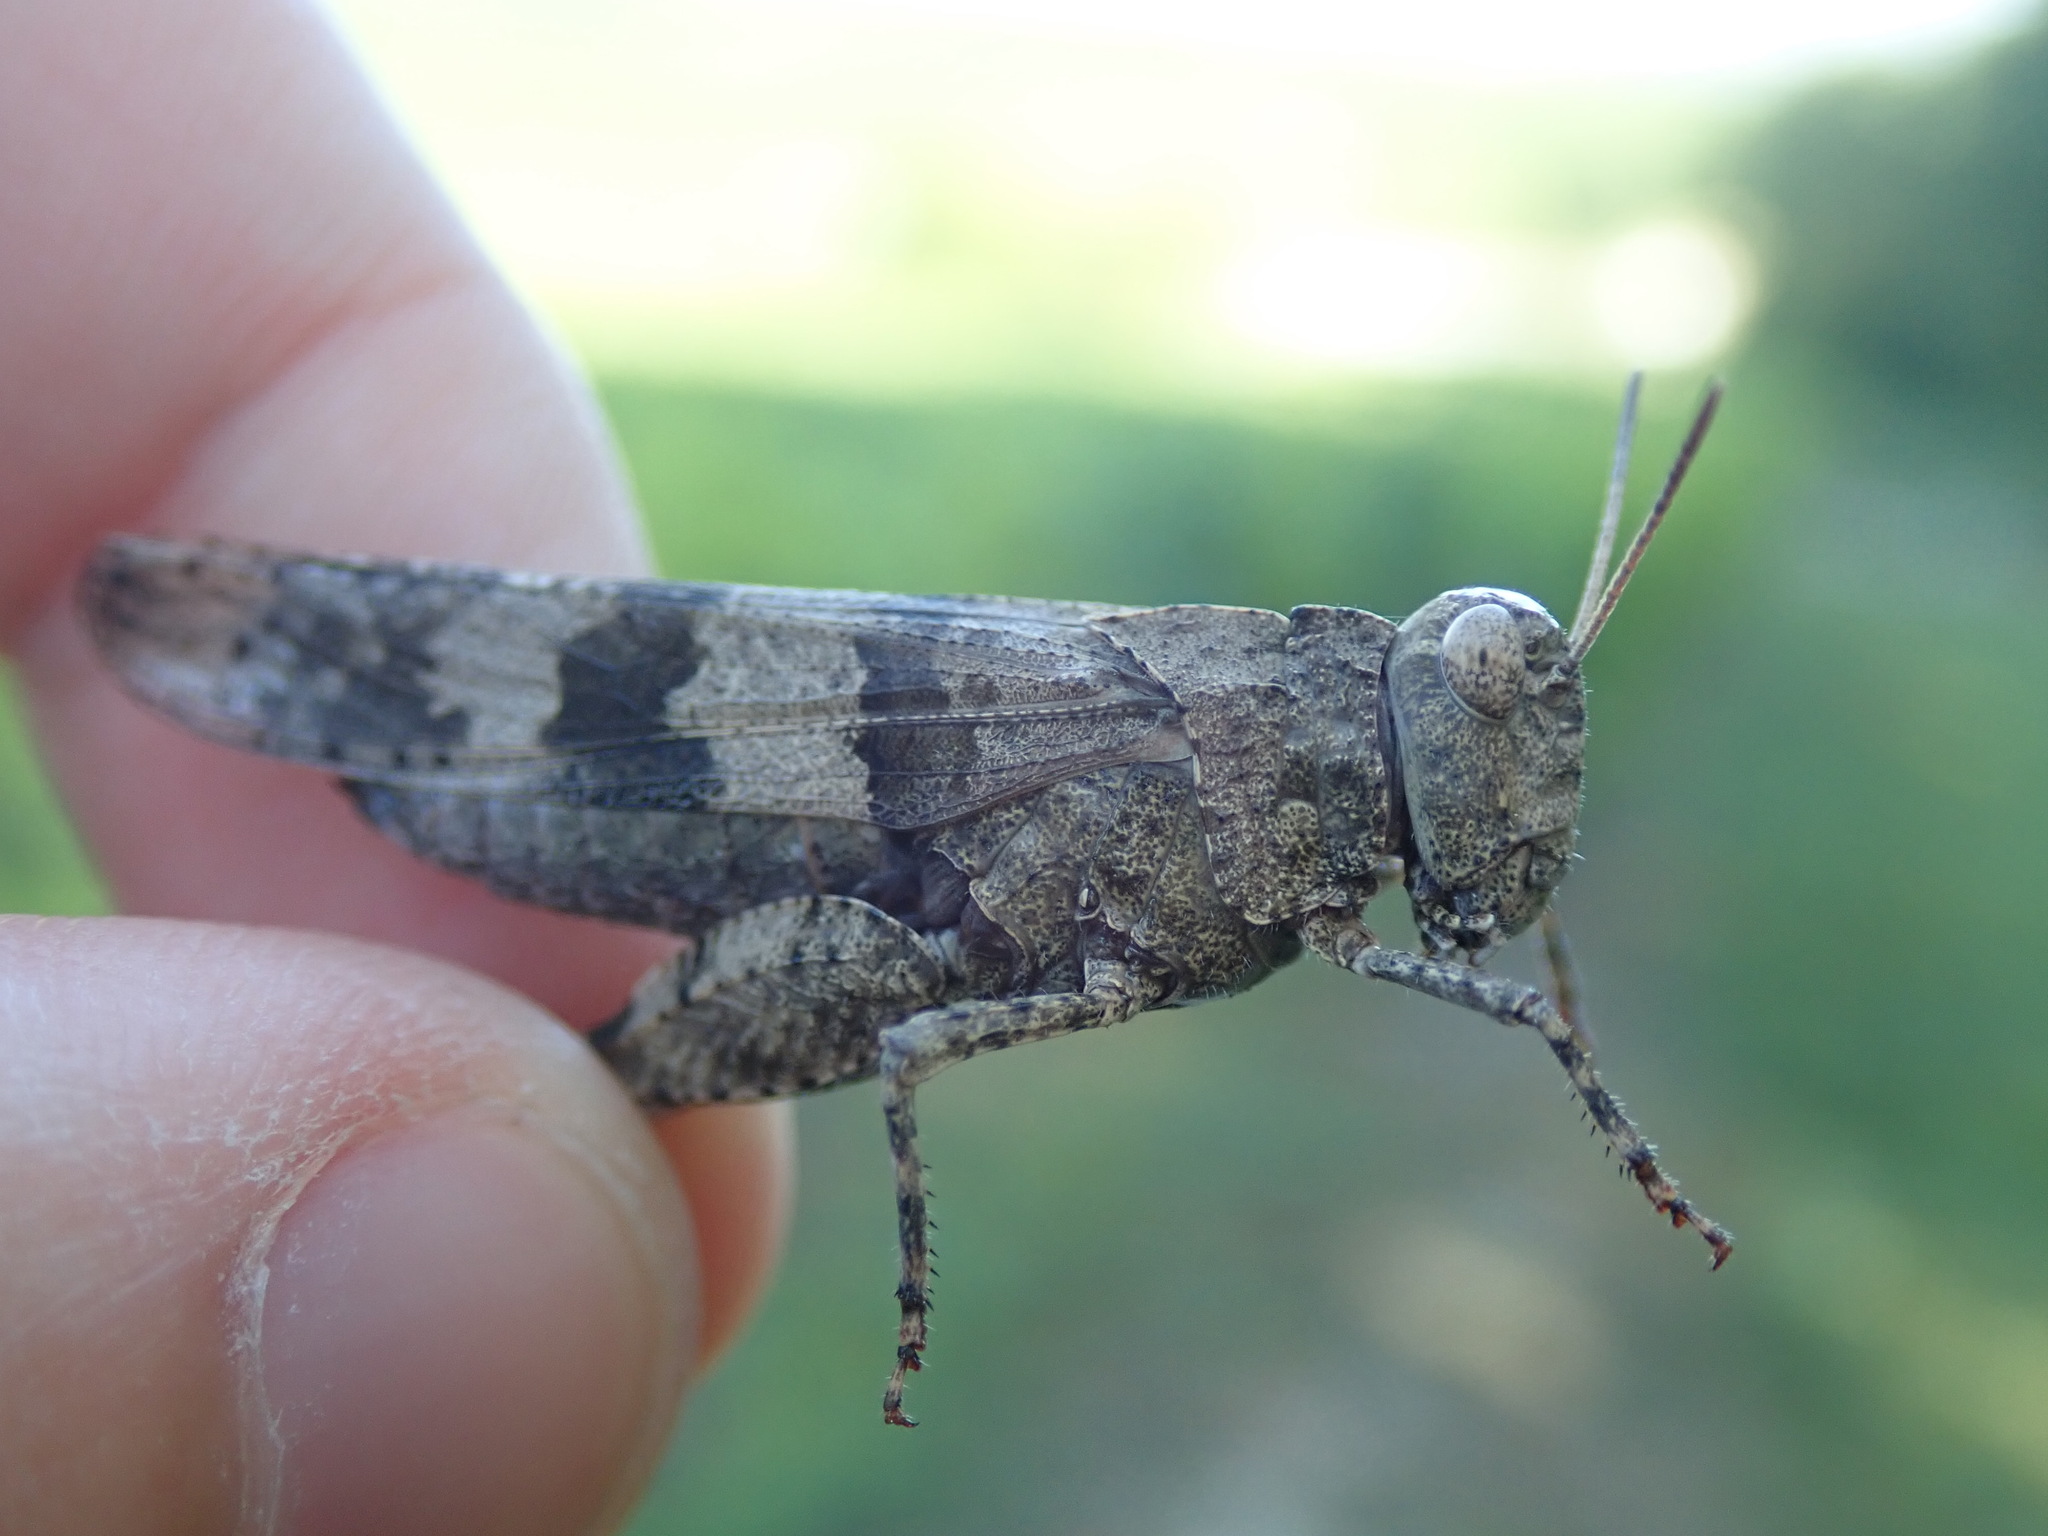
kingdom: Animalia
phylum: Arthropoda
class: Insecta
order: Orthoptera
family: Acrididae
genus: Oedipoda
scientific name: Oedipoda caerulescens
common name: Blue-winged grasshopper
